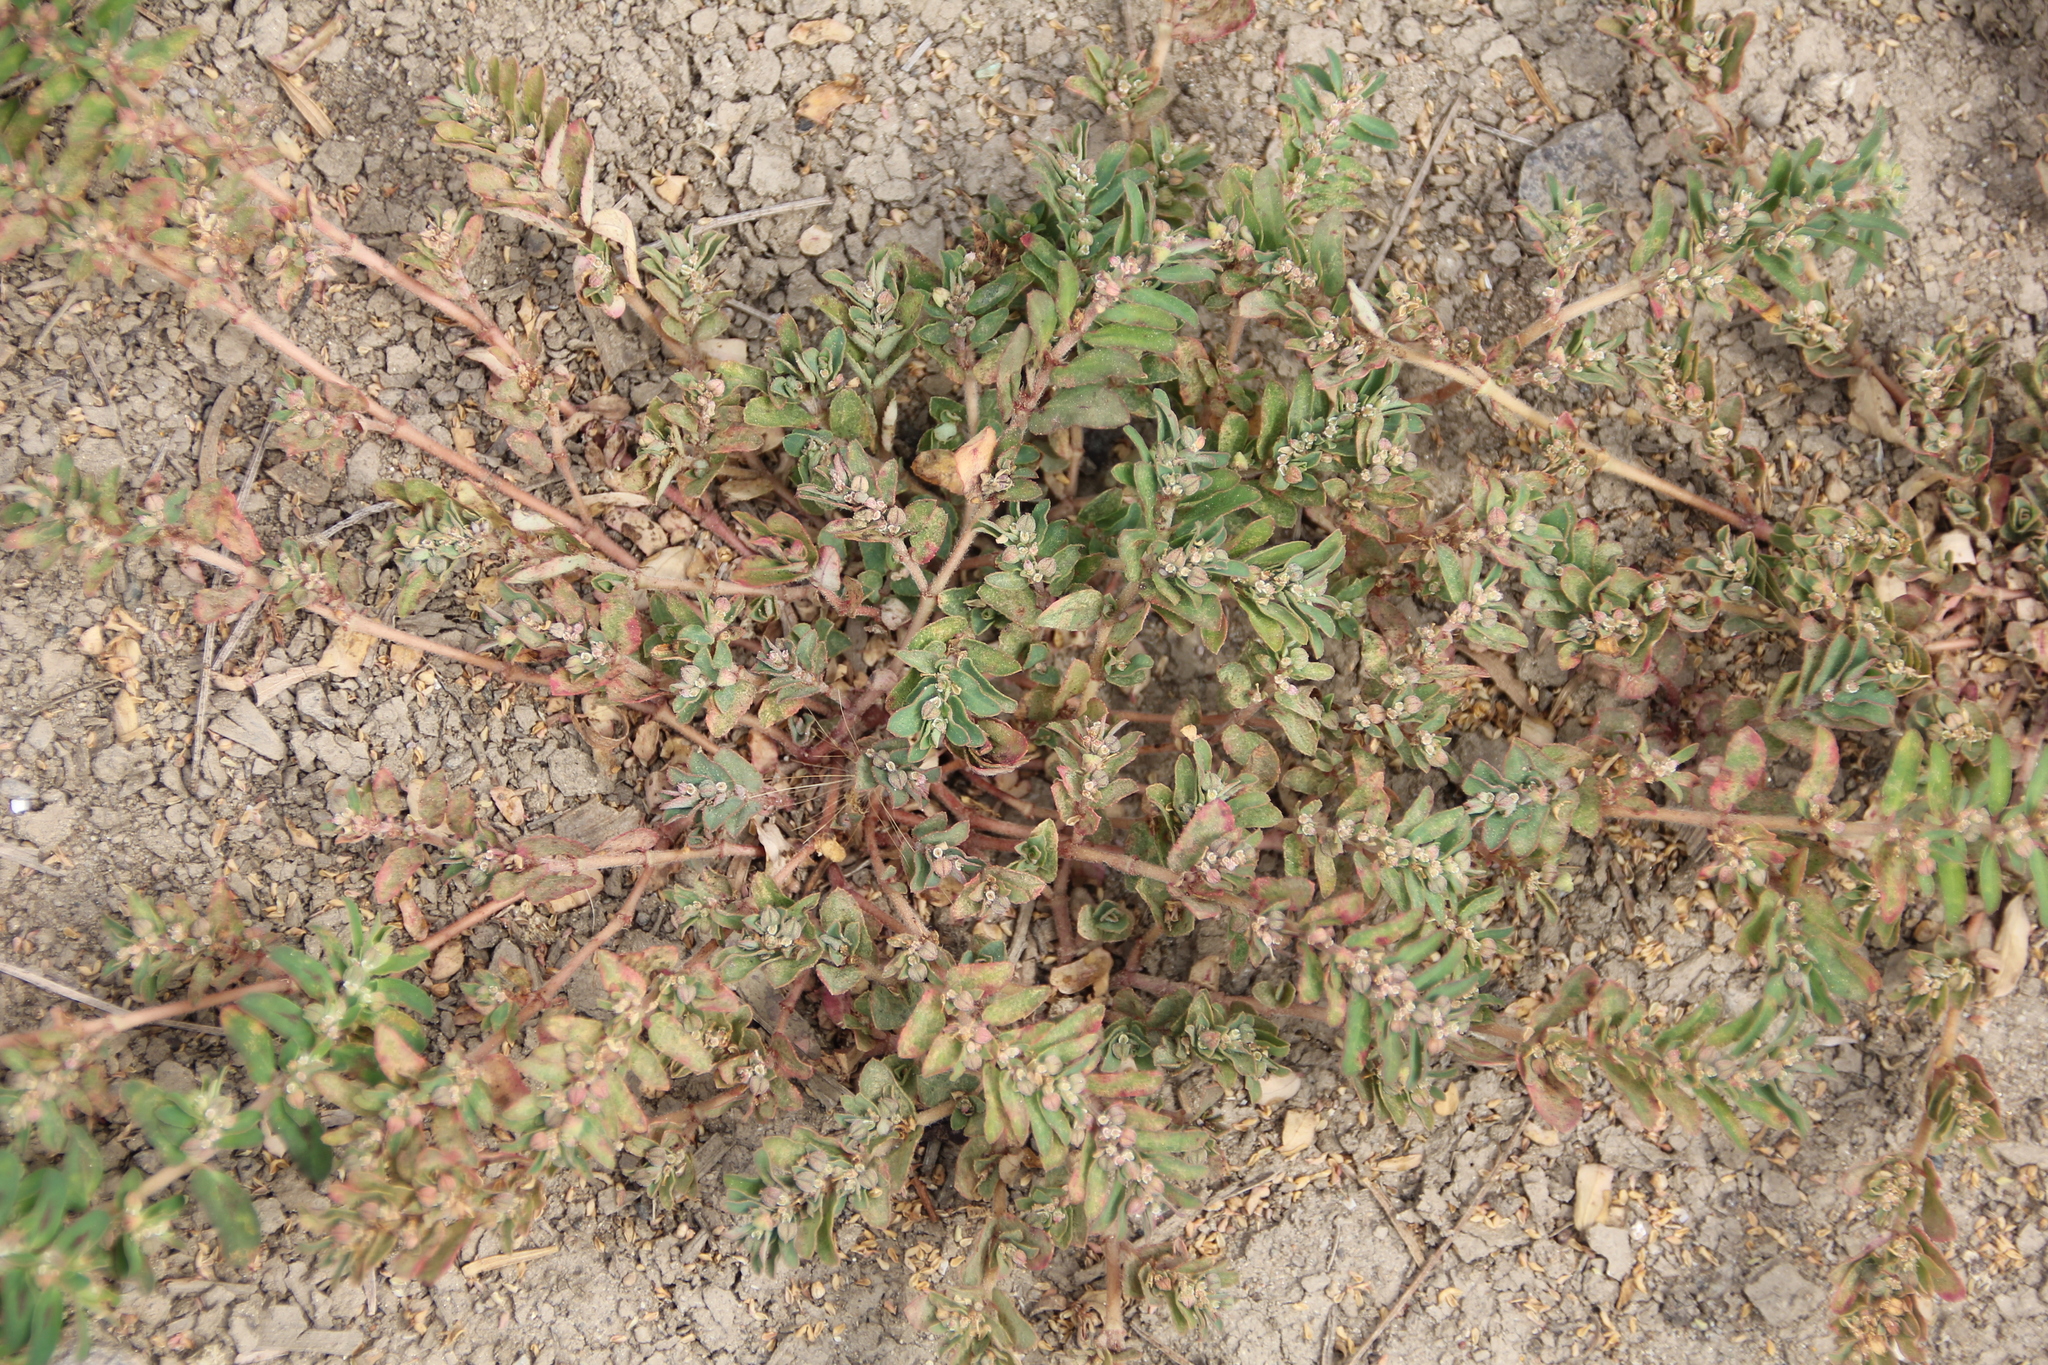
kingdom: Plantae
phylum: Tracheophyta
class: Magnoliopsida
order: Malpighiales
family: Euphorbiaceae
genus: Euphorbia
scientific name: Euphorbia maculata
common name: Spotted spurge
